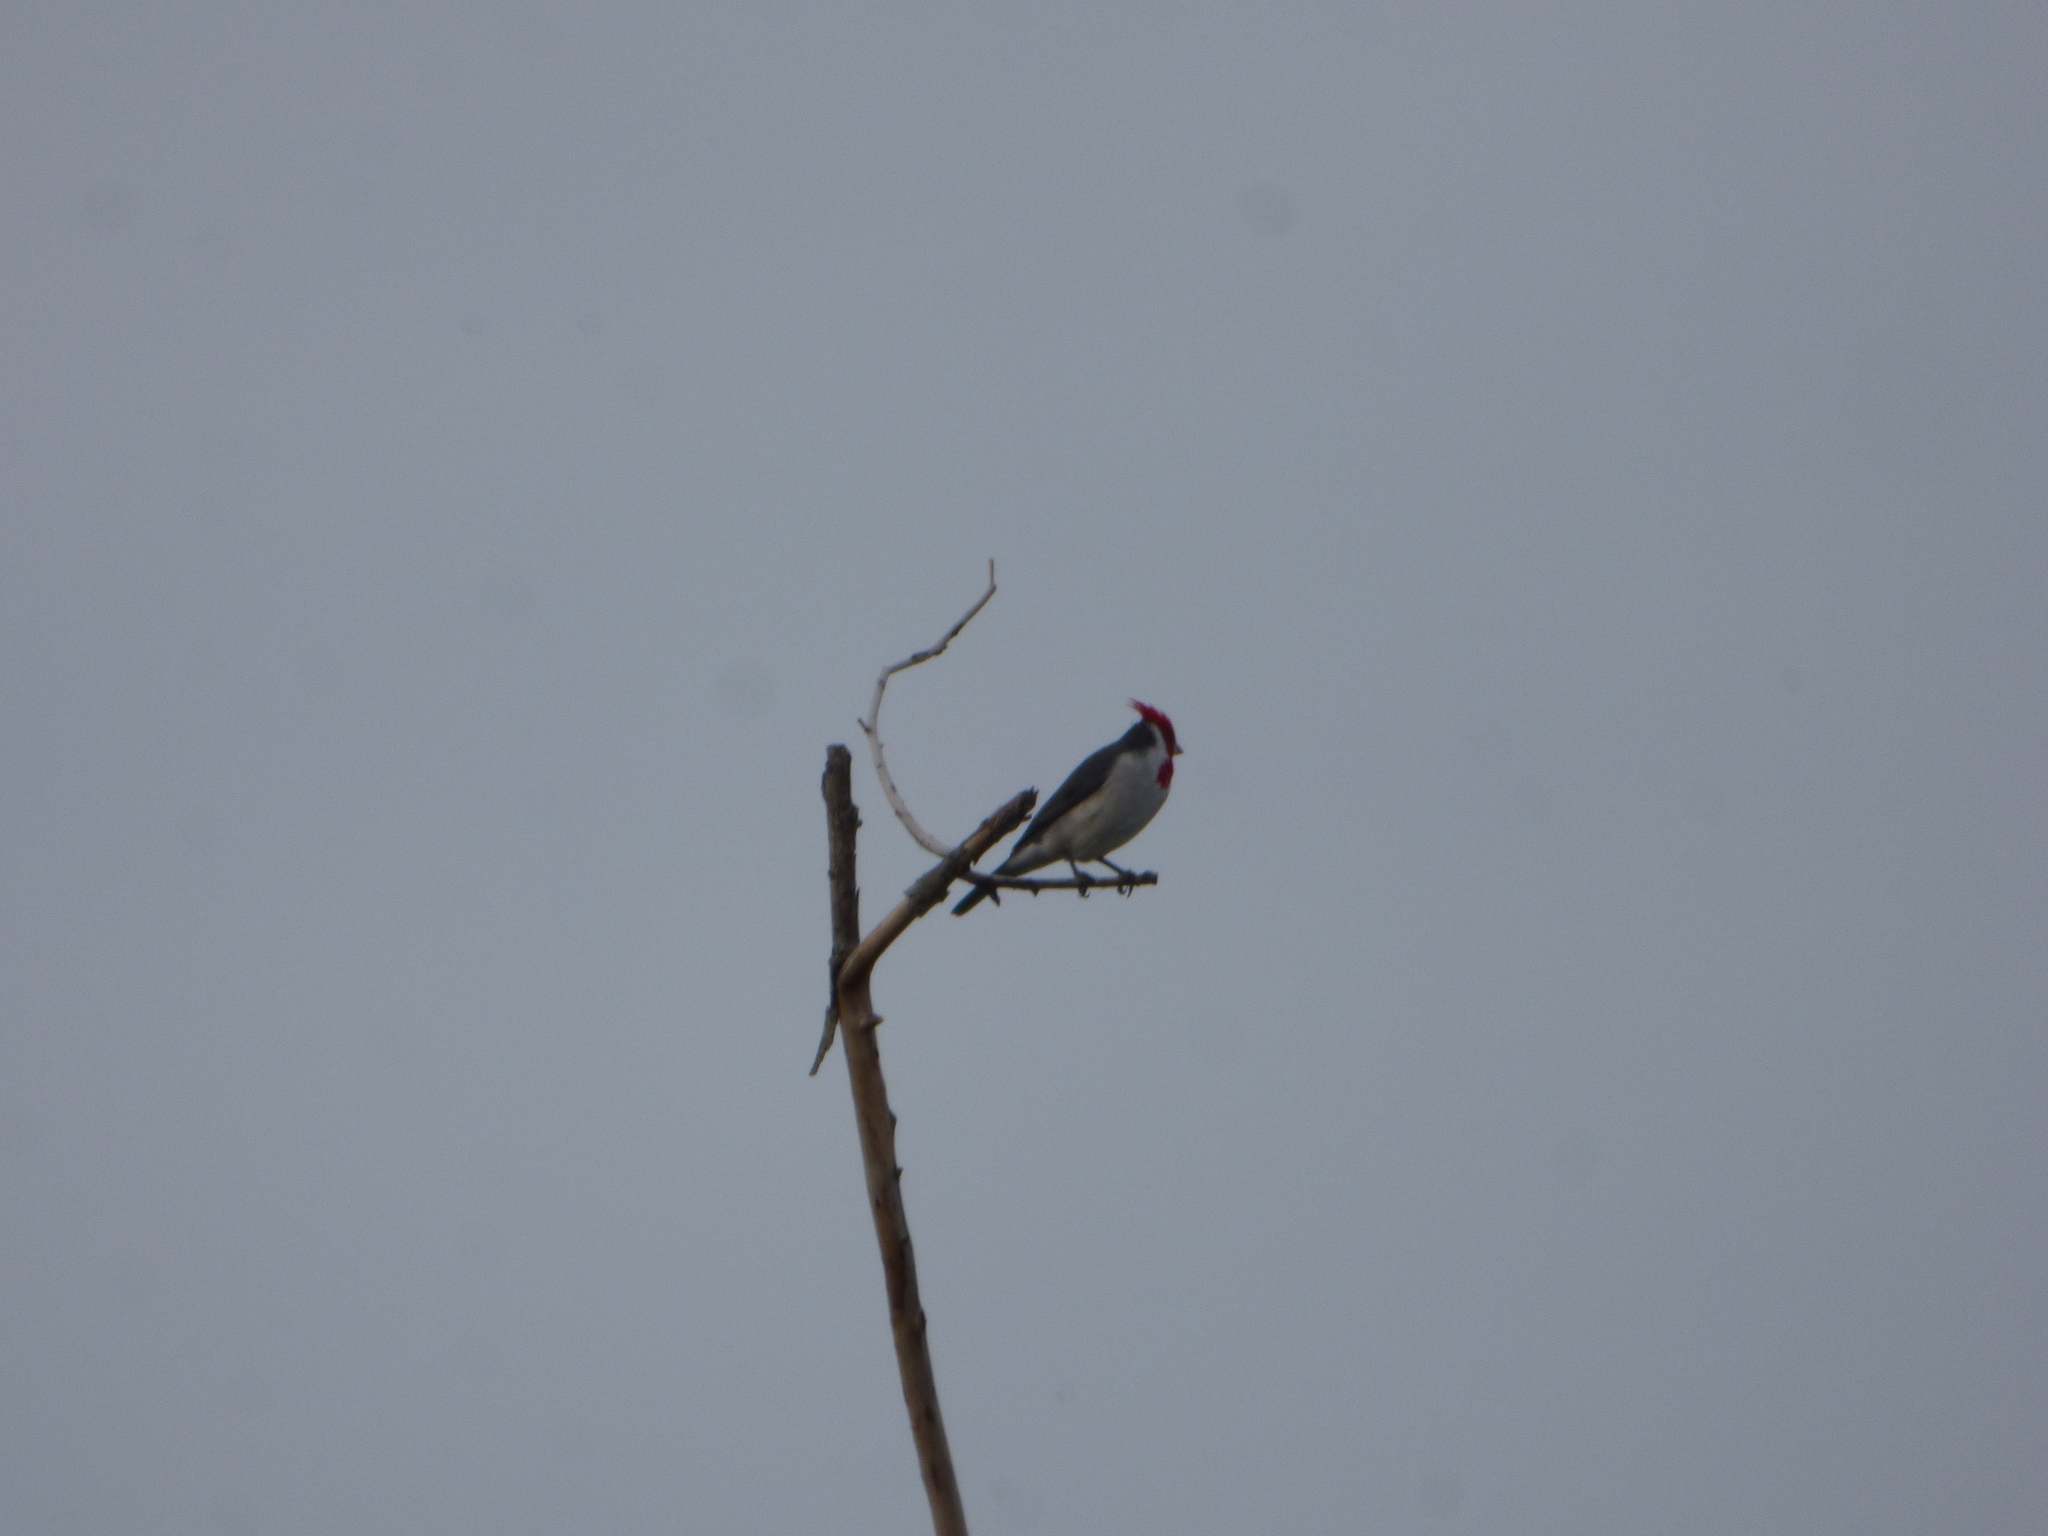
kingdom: Animalia
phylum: Chordata
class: Aves
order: Passeriformes
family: Thraupidae
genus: Paroaria
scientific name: Paroaria coronata
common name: Red-crested cardinal
